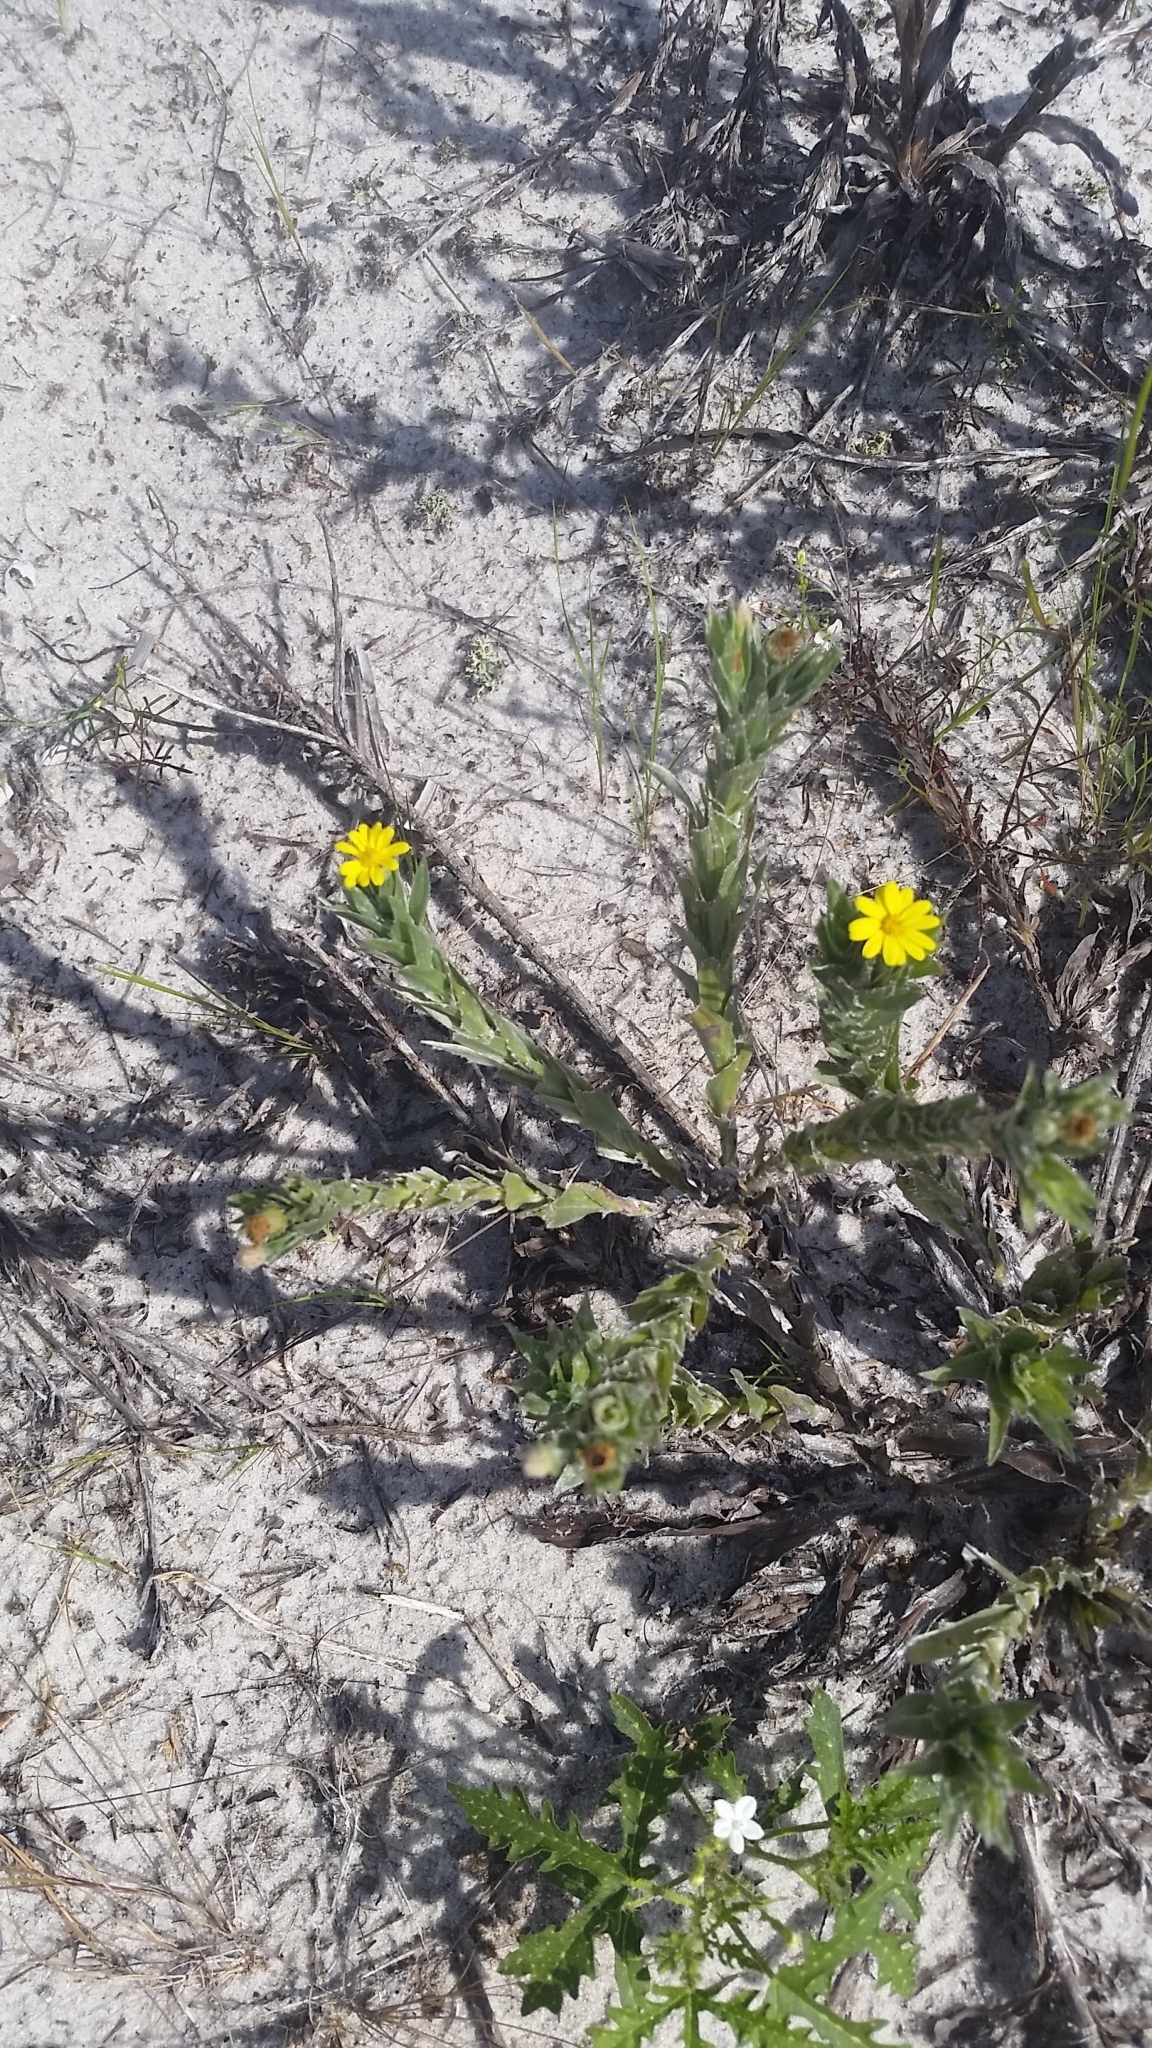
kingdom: Plantae
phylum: Tracheophyta
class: Magnoliopsida
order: Asterales
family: Asteraceae
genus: Pityopsis
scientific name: Pityopsis latifolia
